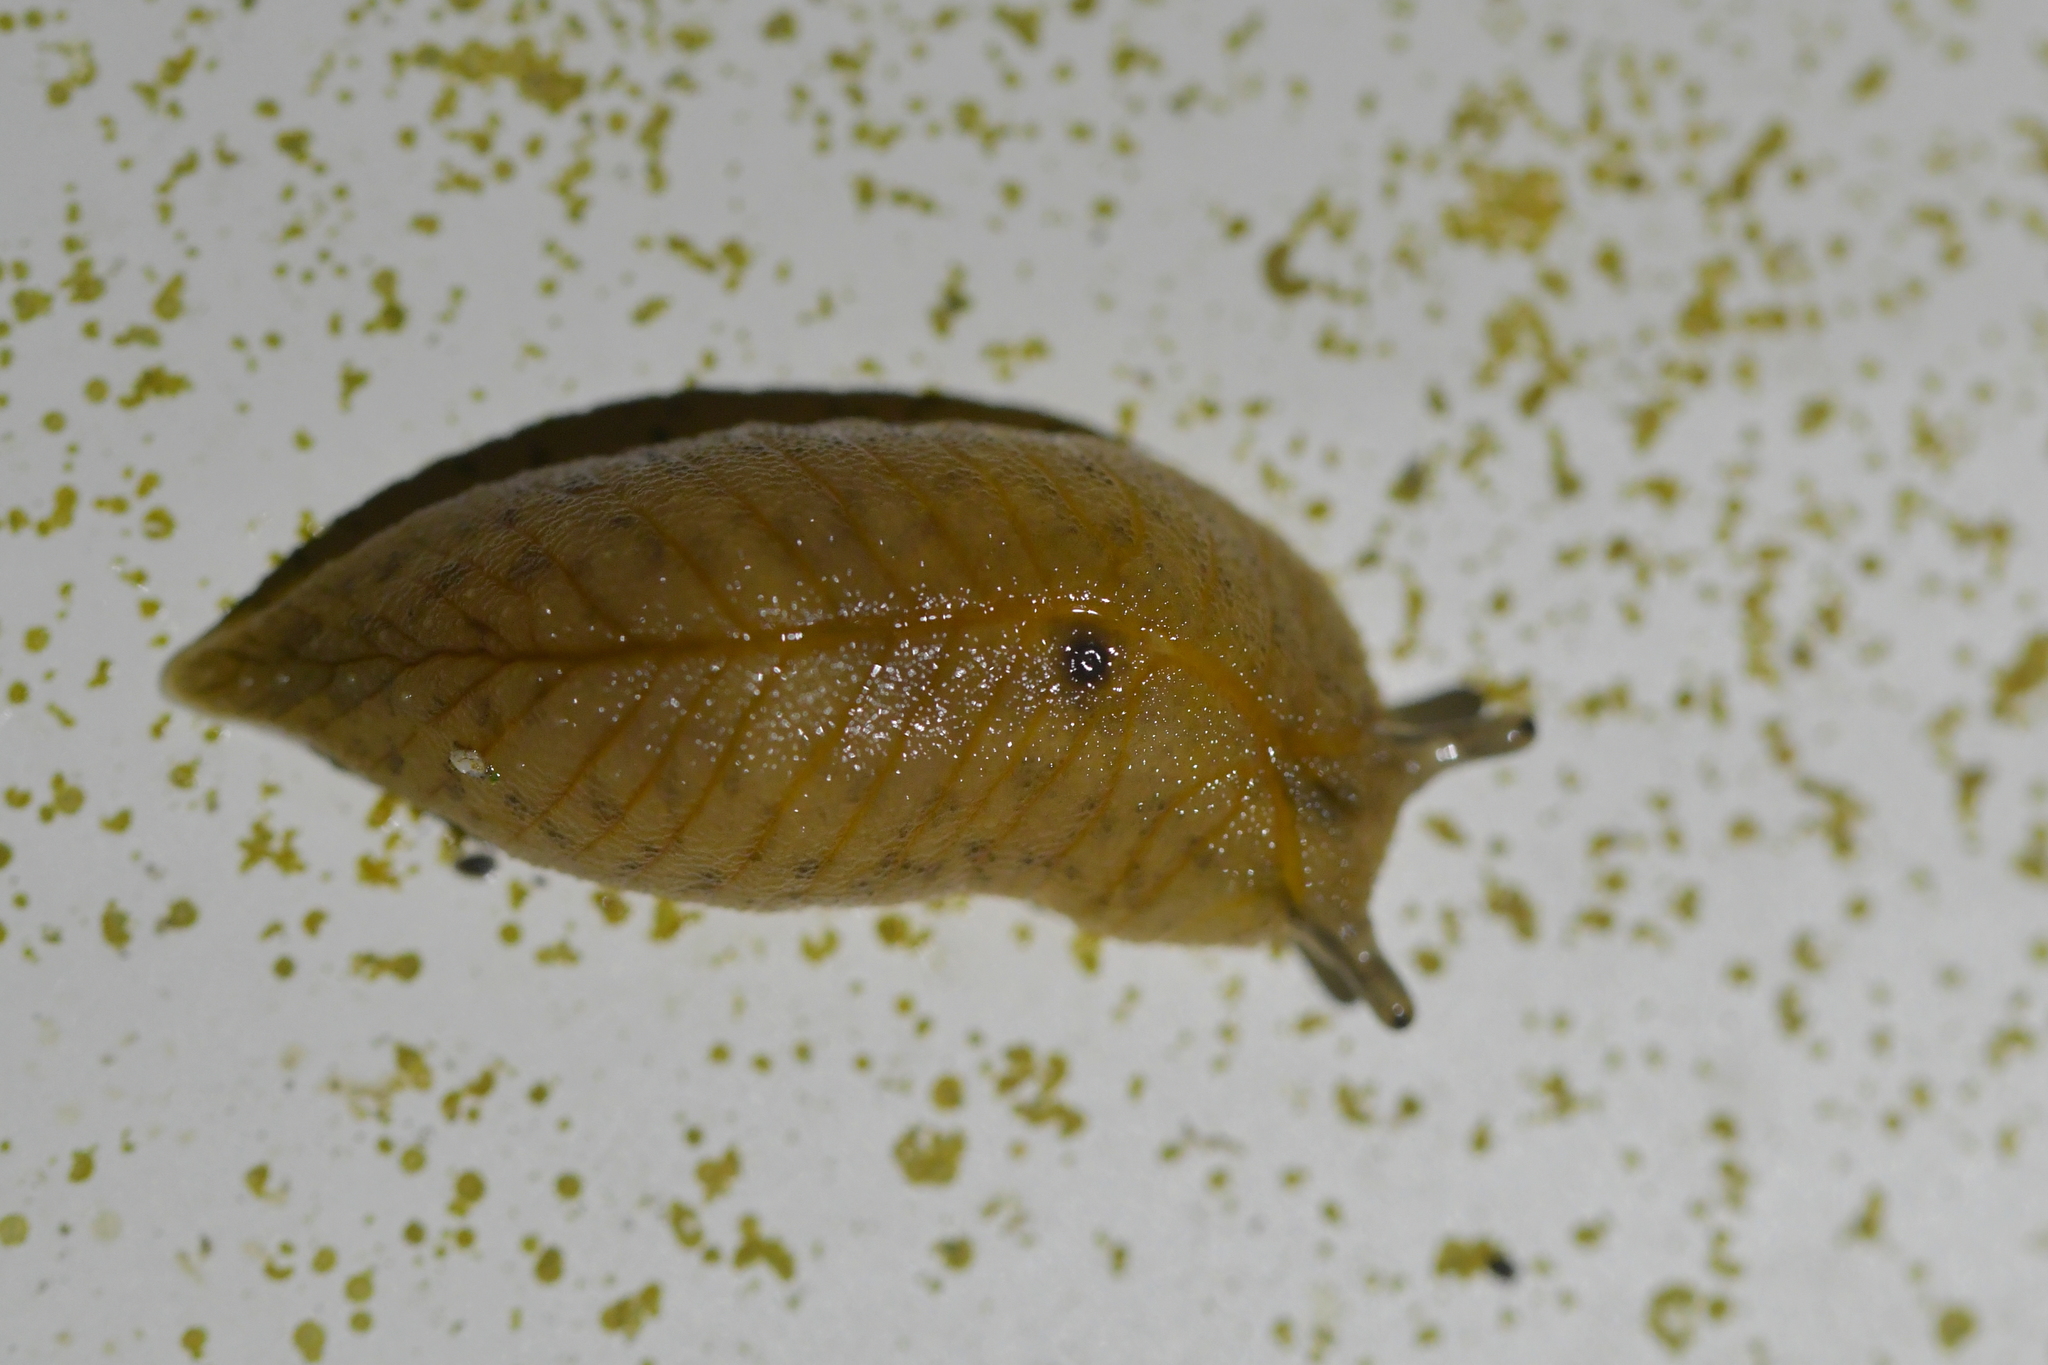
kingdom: Animalia
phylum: Mollusca
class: Gastropoda
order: Stylommatophora
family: Athoracophoridae
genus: Athoracophorus
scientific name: Athoracophorus bitentaculatus
